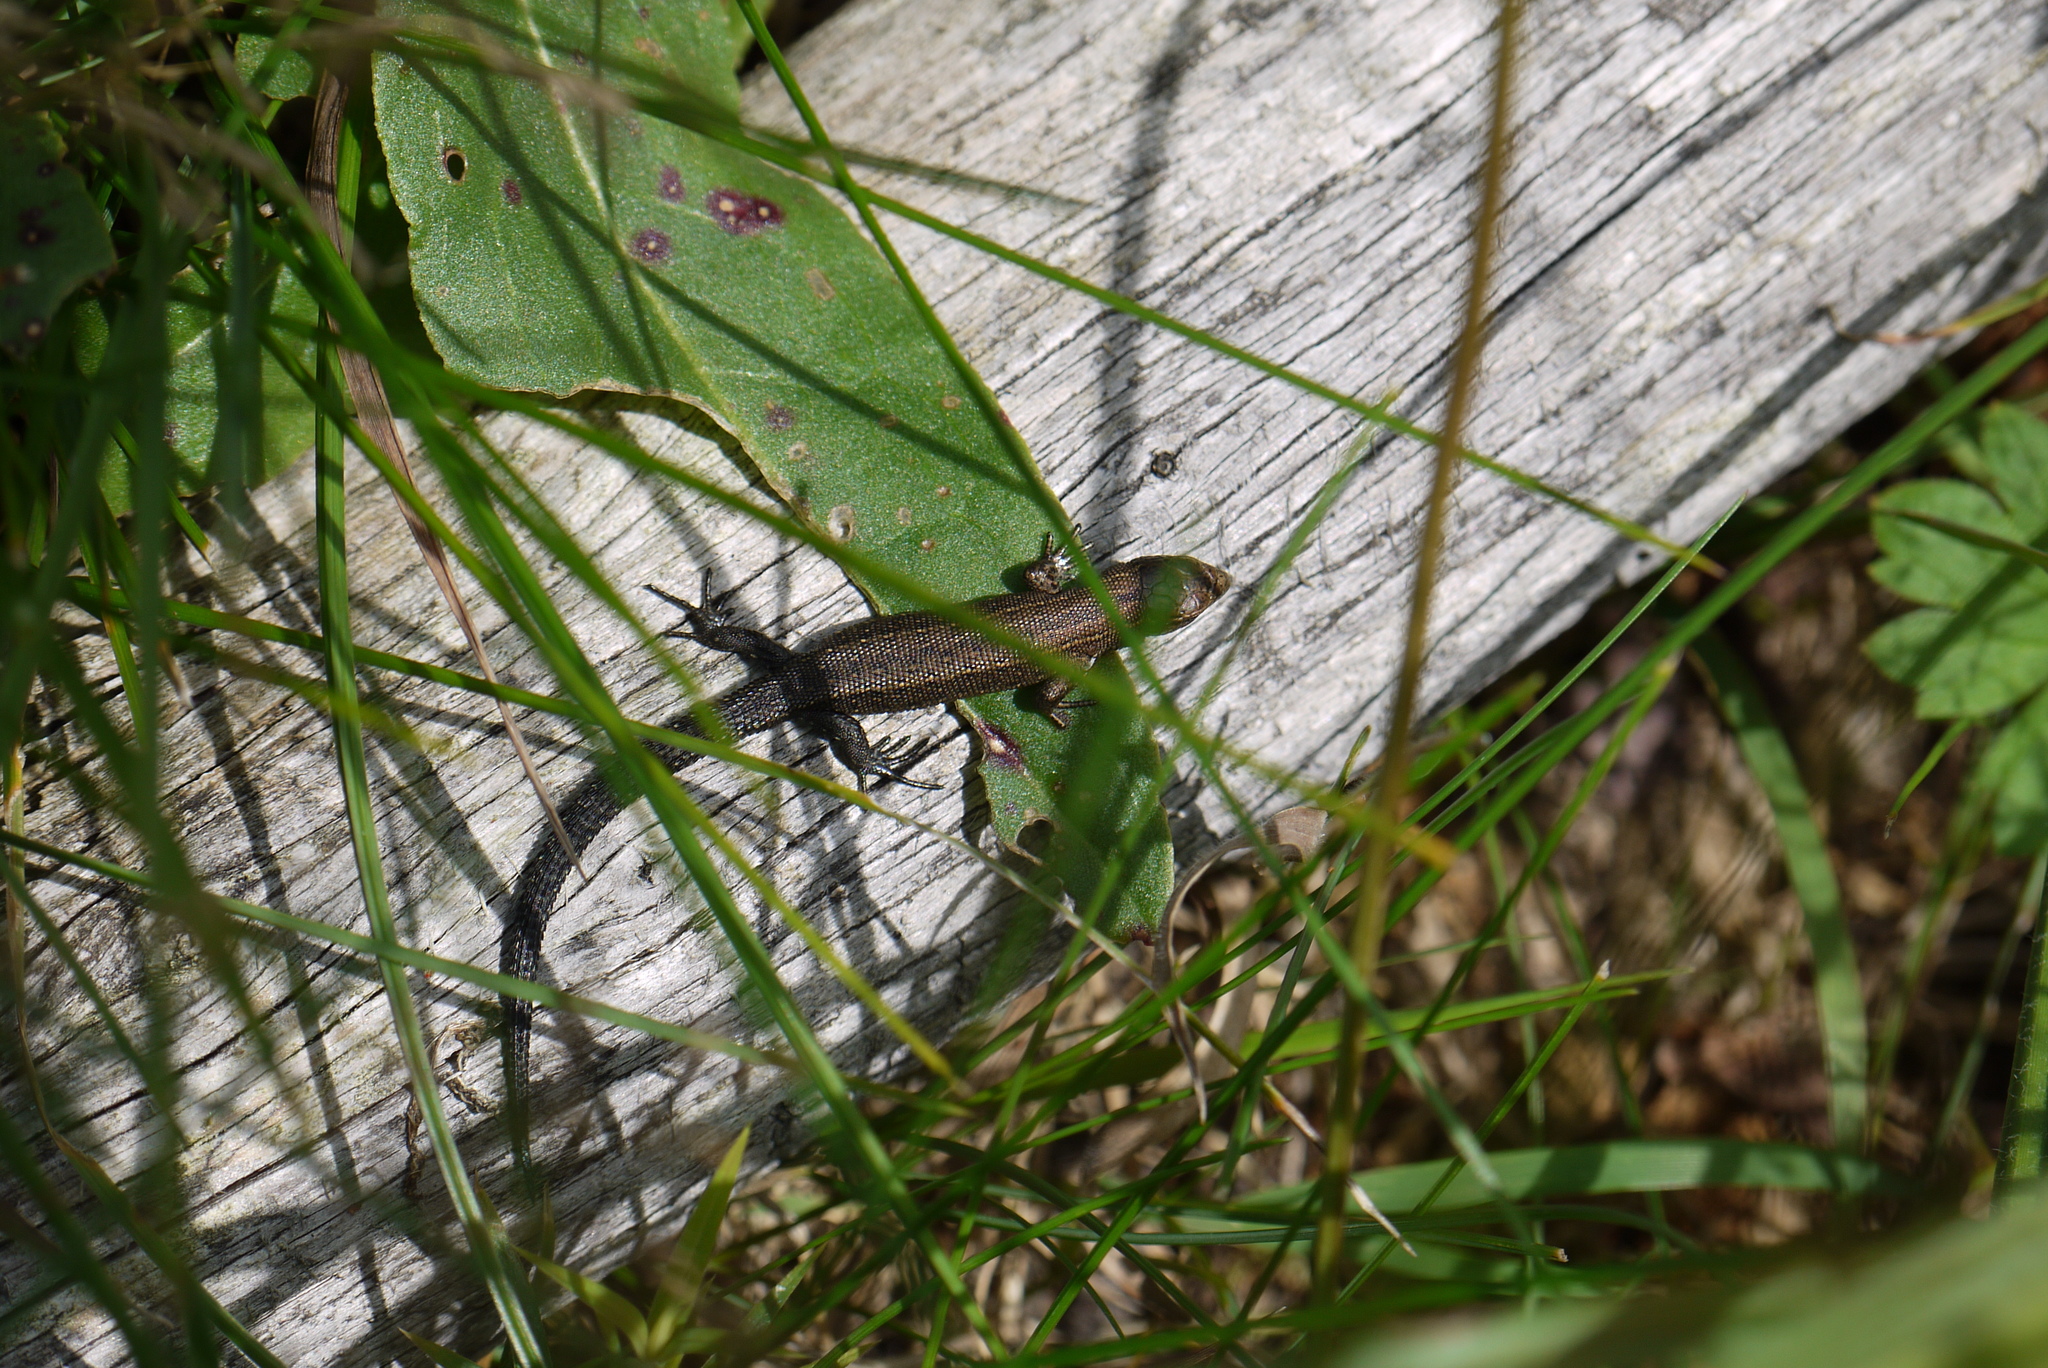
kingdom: Animalia
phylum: Chordata
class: Squamata
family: Lacertidae
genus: Zootoca
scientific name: Zootoca vivipara
